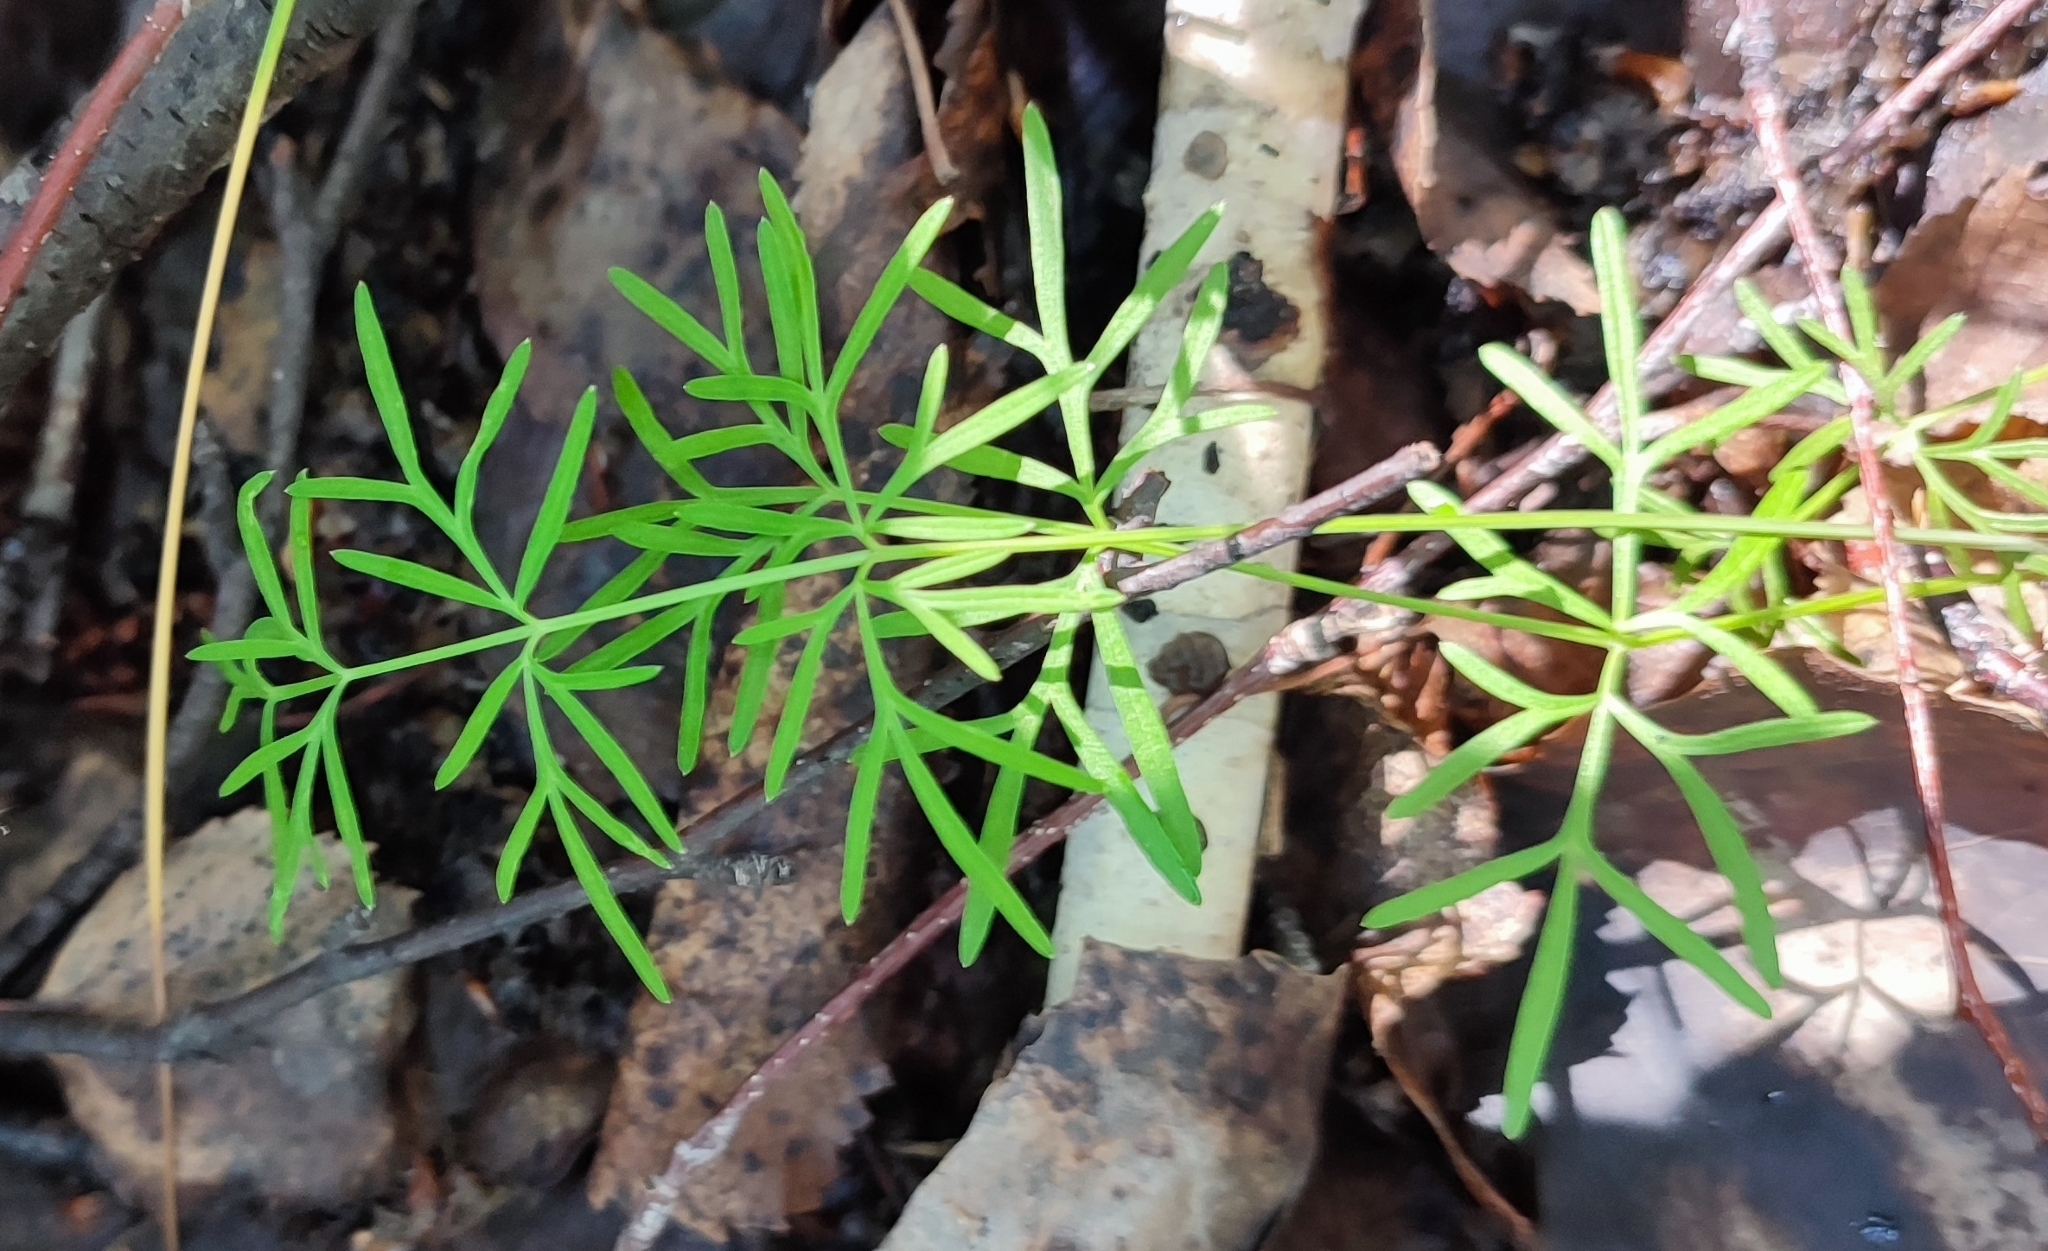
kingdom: Plantae
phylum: Tracheophyta
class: Magnoliopsida
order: Apiales
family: Apiaceae
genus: Kadenia
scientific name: Kadenia dubia
